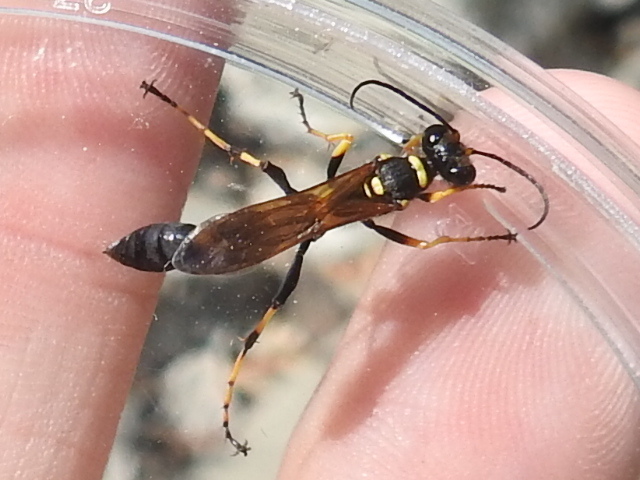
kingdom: Animalia
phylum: Arthropoda
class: Insecta
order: Hymenoptera
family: Sphecidae
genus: Sceliphron
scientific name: Sceliphron caementarium
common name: Mud dauber
